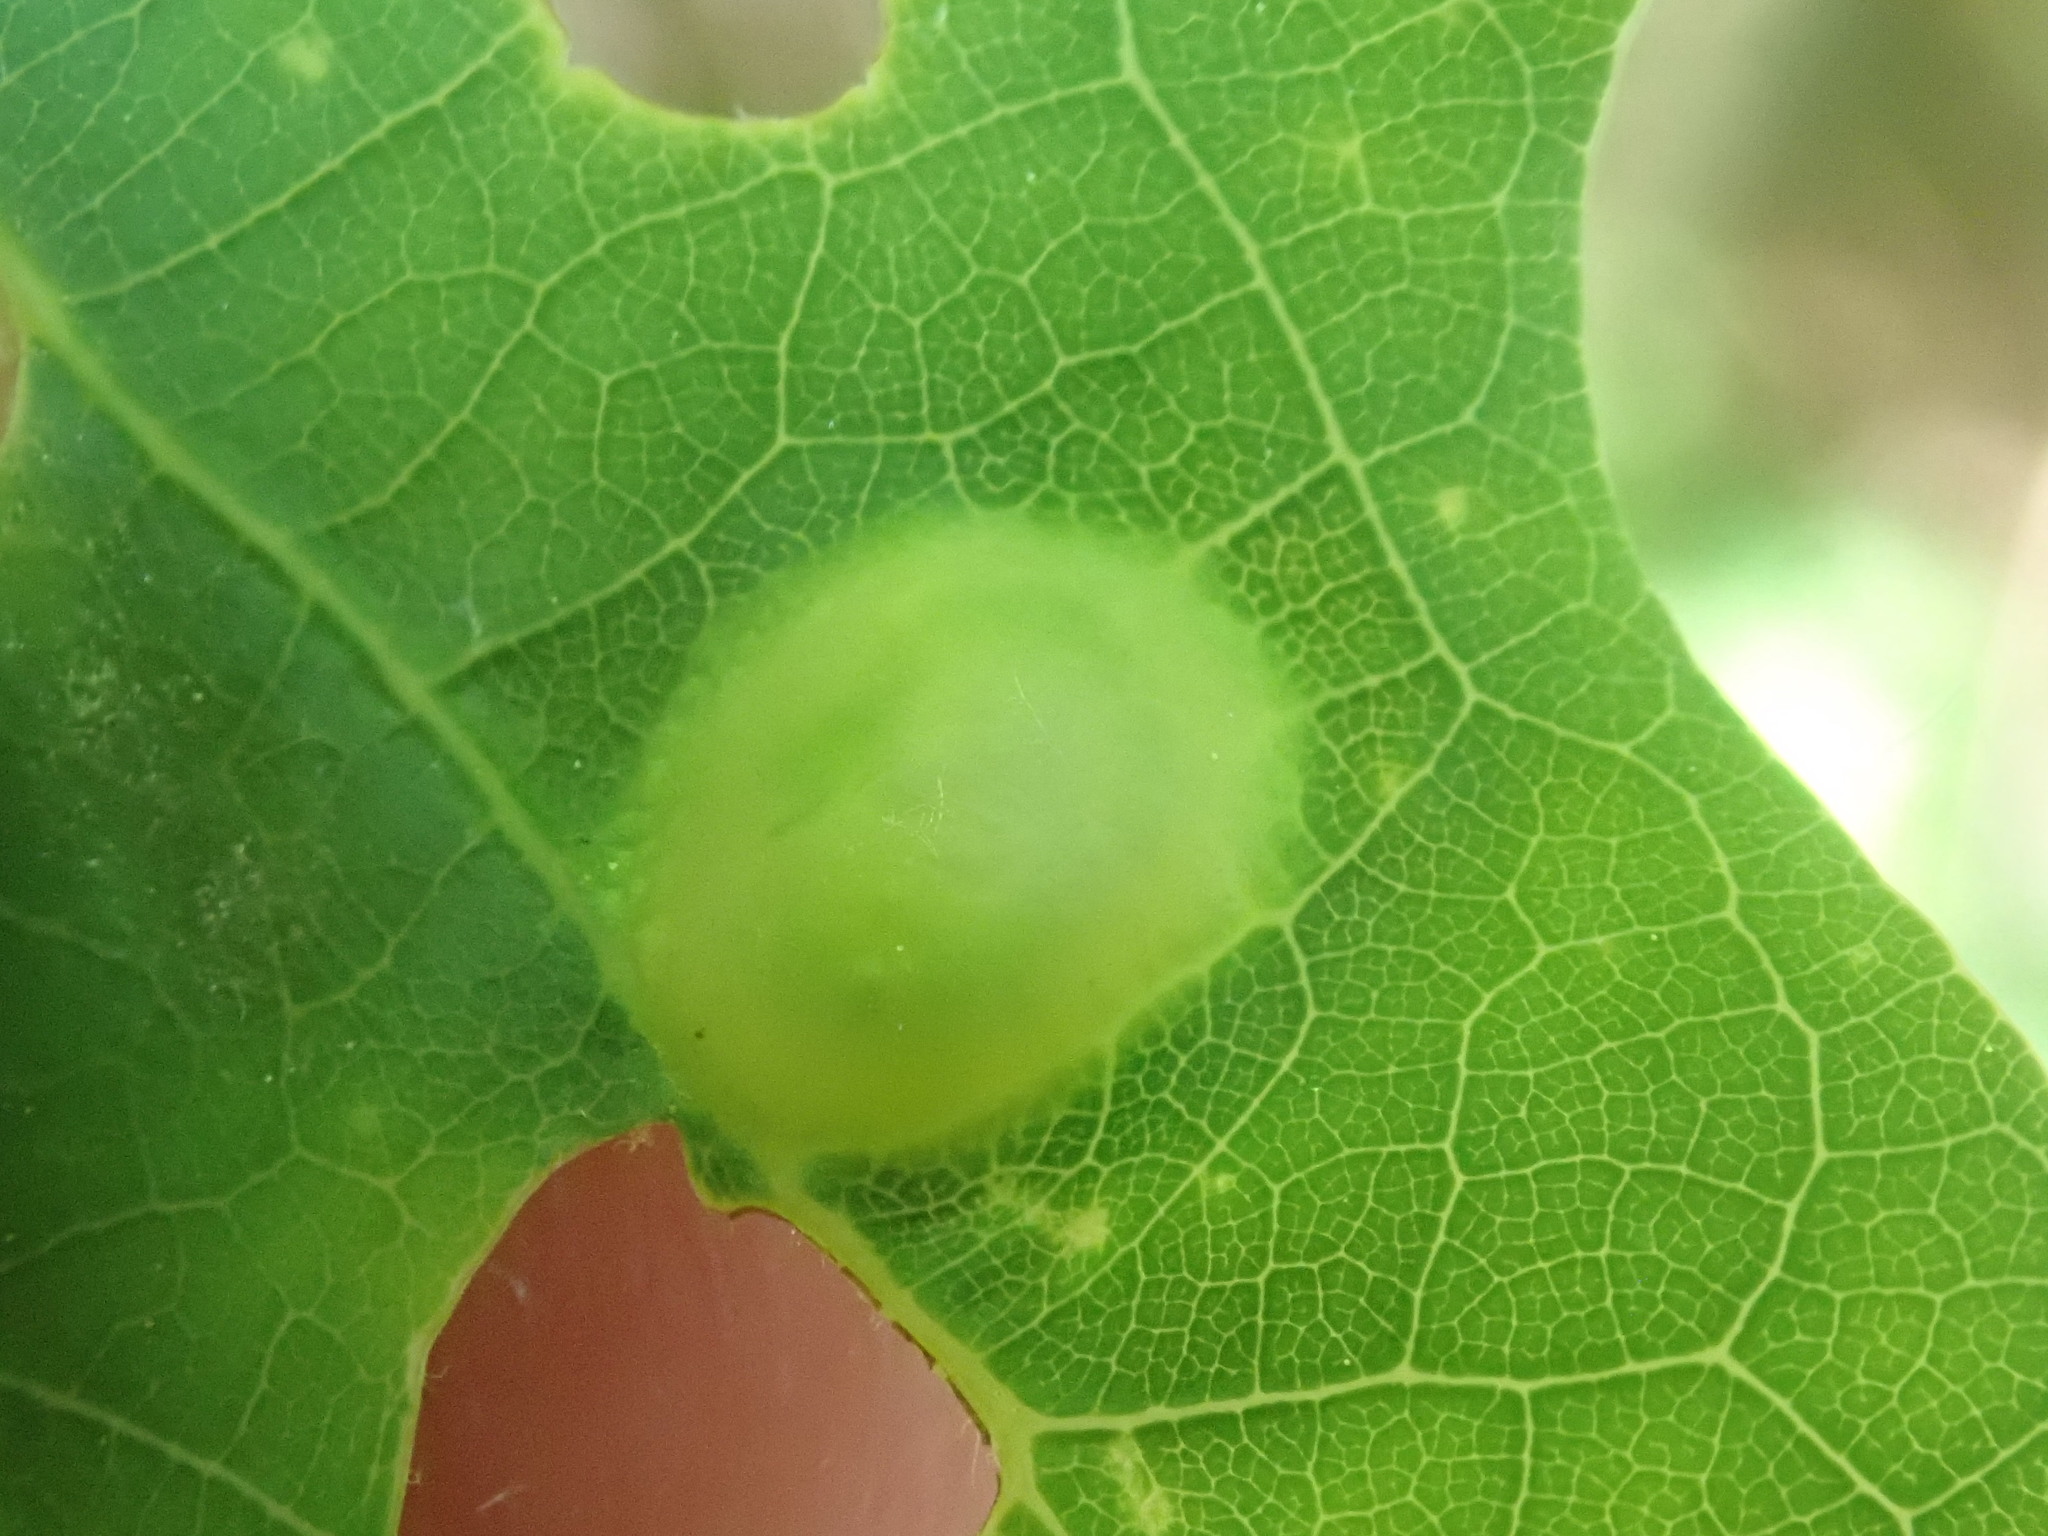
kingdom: Animalia
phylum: Arthropoda
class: Insecta
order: Hymenoptera
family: Cynipidae
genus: Callirhytis
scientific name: Callirhytis
